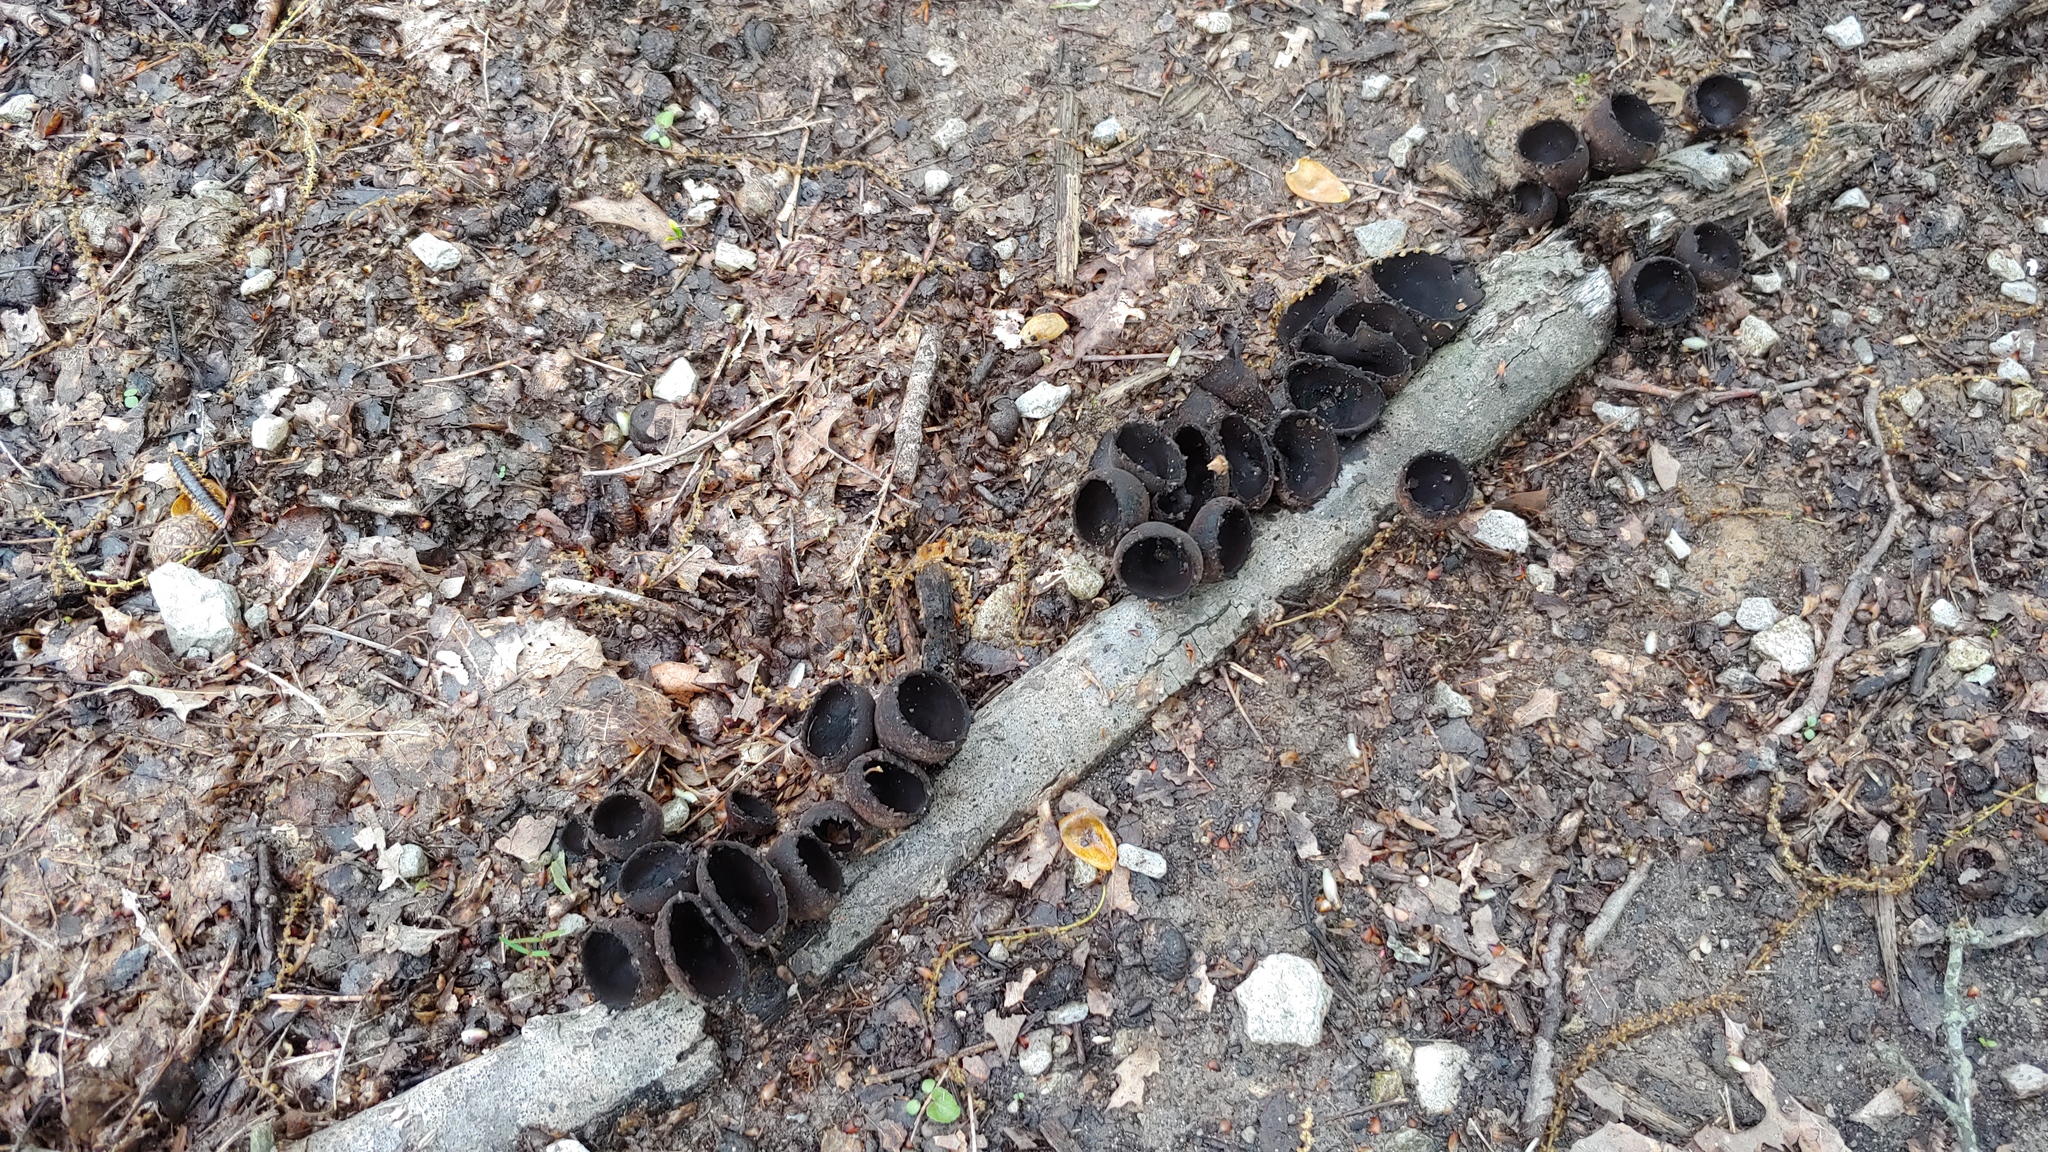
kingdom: Fungi
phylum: Ascomycota
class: Pezizomycetes
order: Pezizales
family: Sarcosomataceae
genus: Urnula
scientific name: Urnula craterium
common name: Devil's urn
